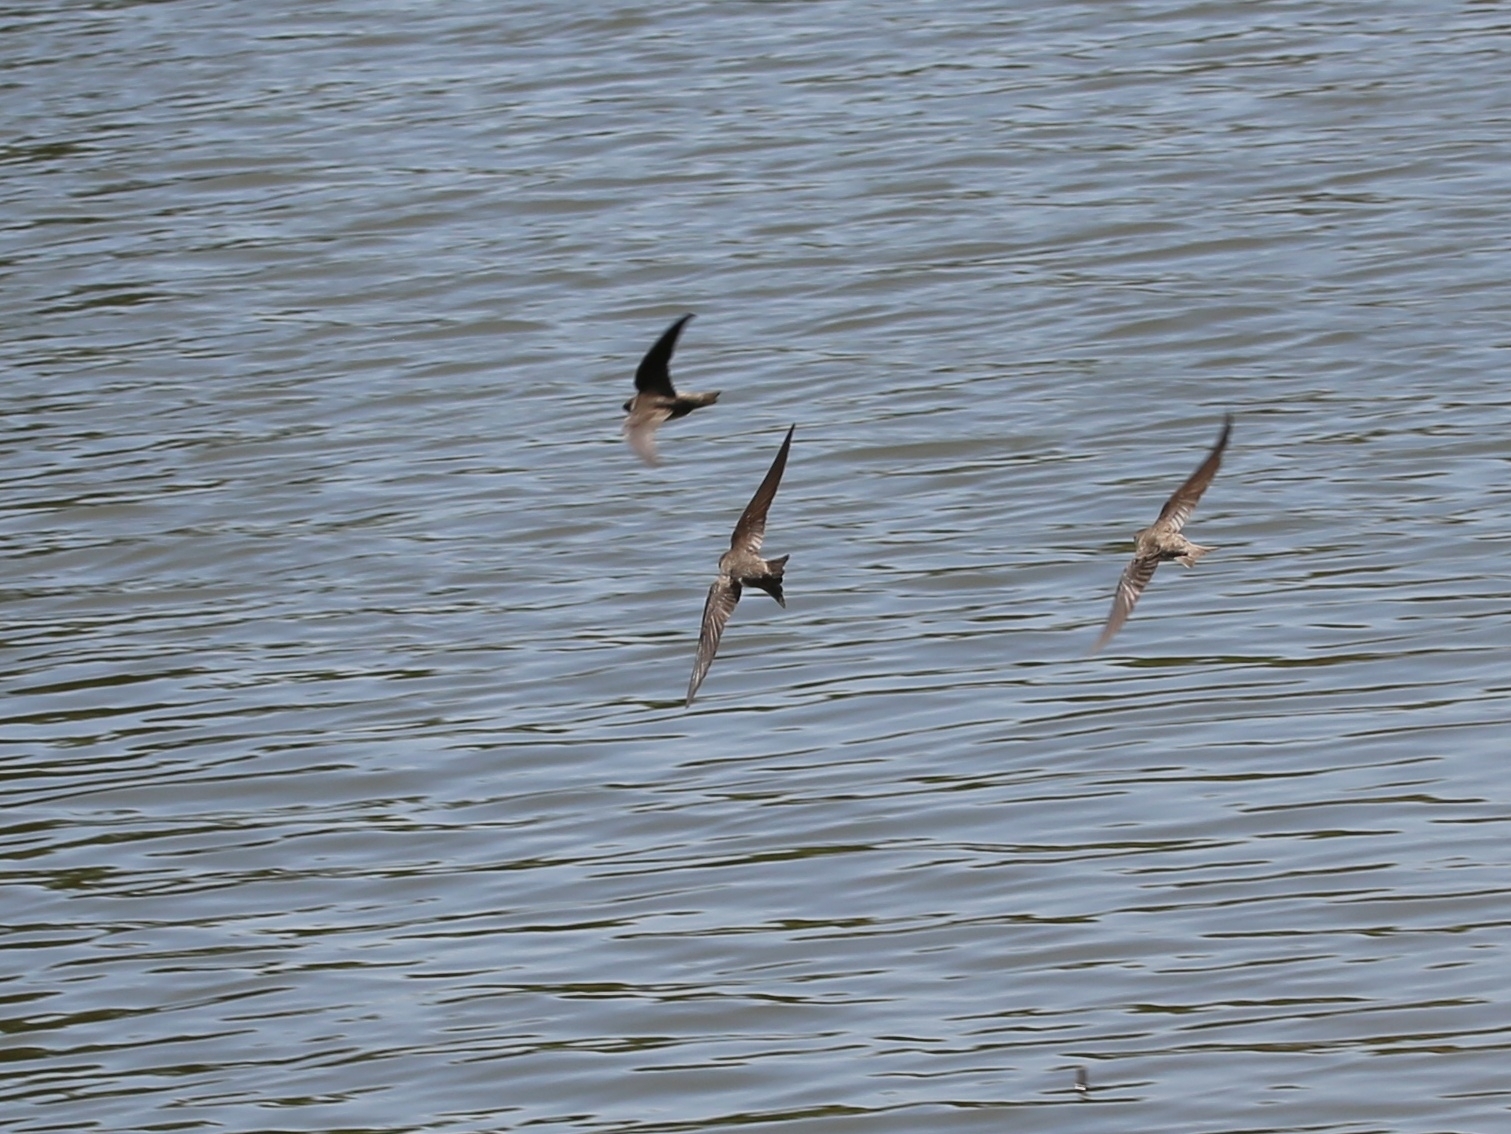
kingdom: Animalia
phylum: Chordata
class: Aves
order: Passeriformes
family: Hirundinidae
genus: Riparia
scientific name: Riparia riparia
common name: Sand martin
